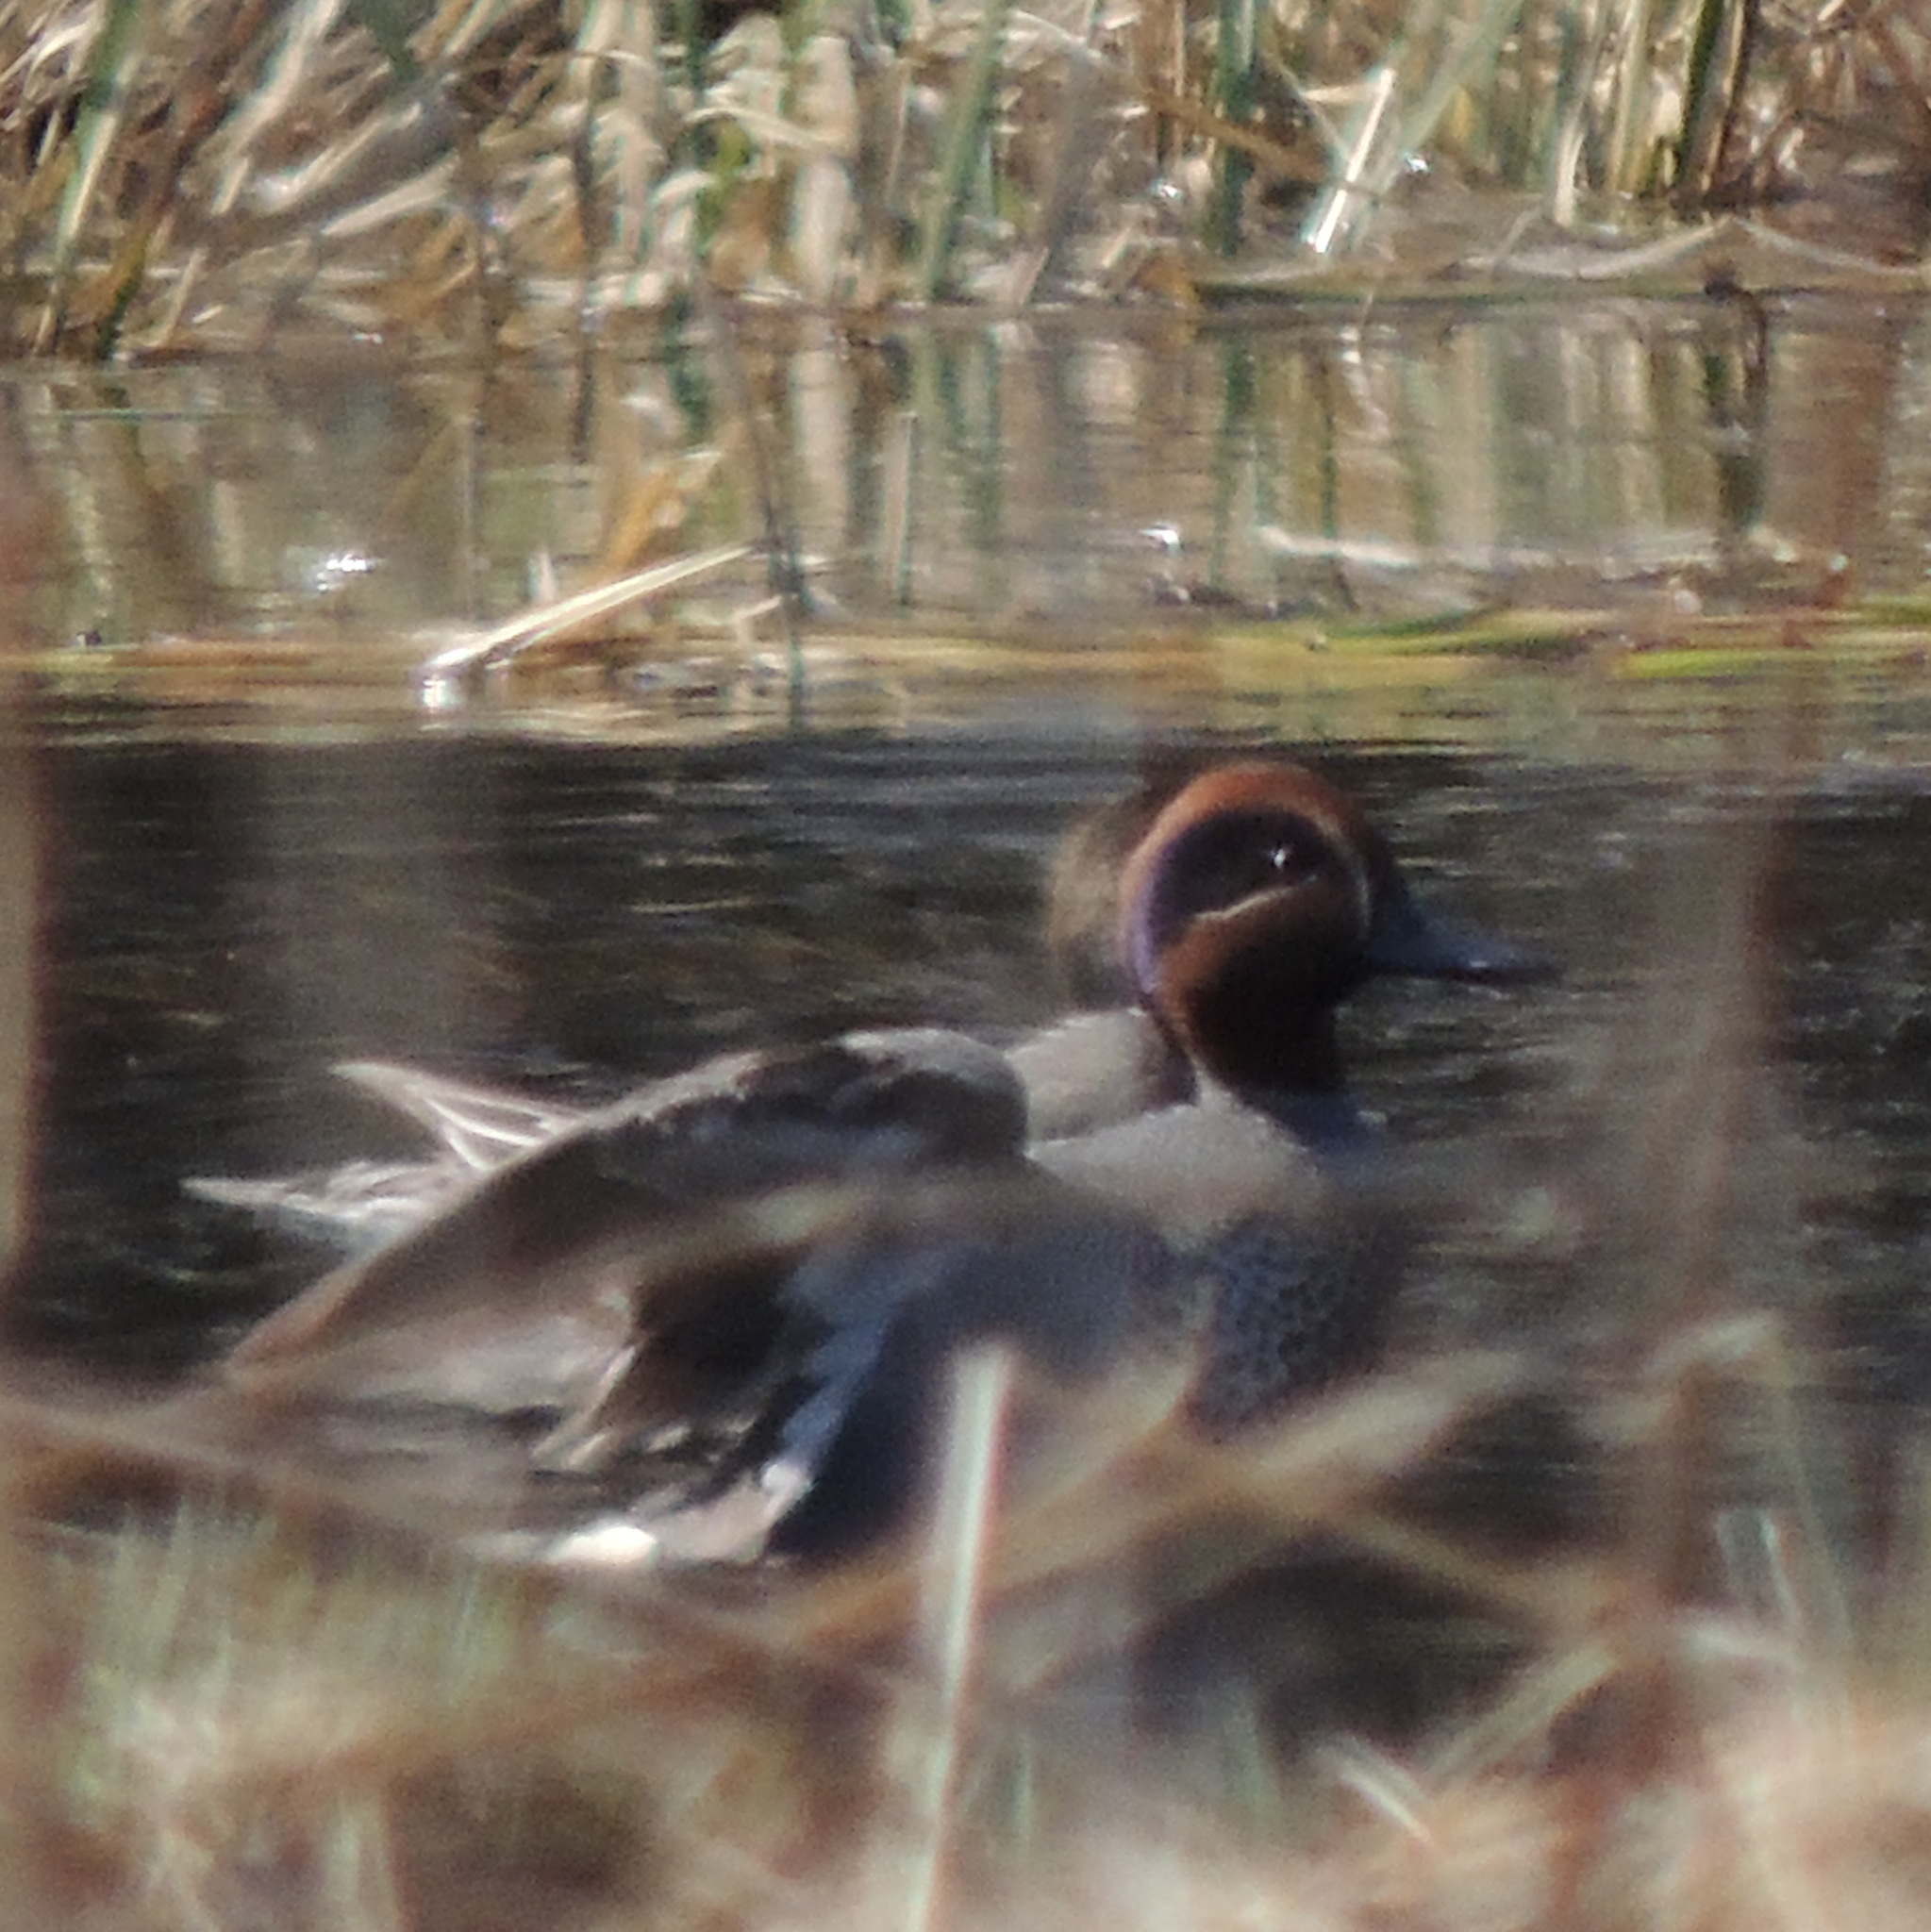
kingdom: Animalia
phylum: Chordata
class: Aves
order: Anseriformes
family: Anatidae
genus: Anas
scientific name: Anas crecca
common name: Eurasian teal
